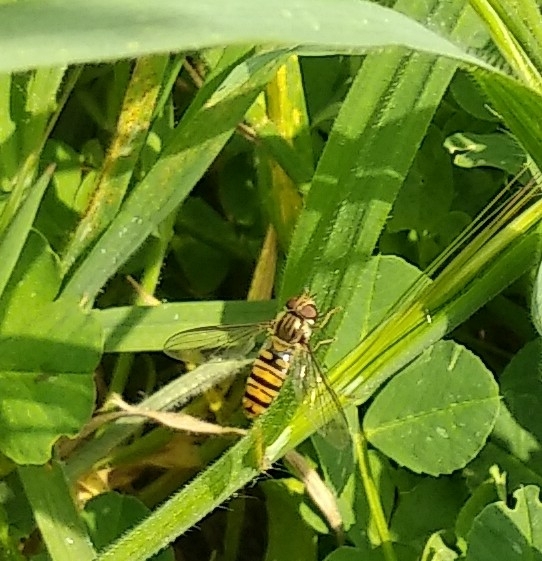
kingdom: Animalia
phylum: Arthropoda
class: Insecta
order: Diptera
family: Syrphidae
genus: Episyrphus
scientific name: Episyrphus balteatus
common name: Marmalade hoverfly
